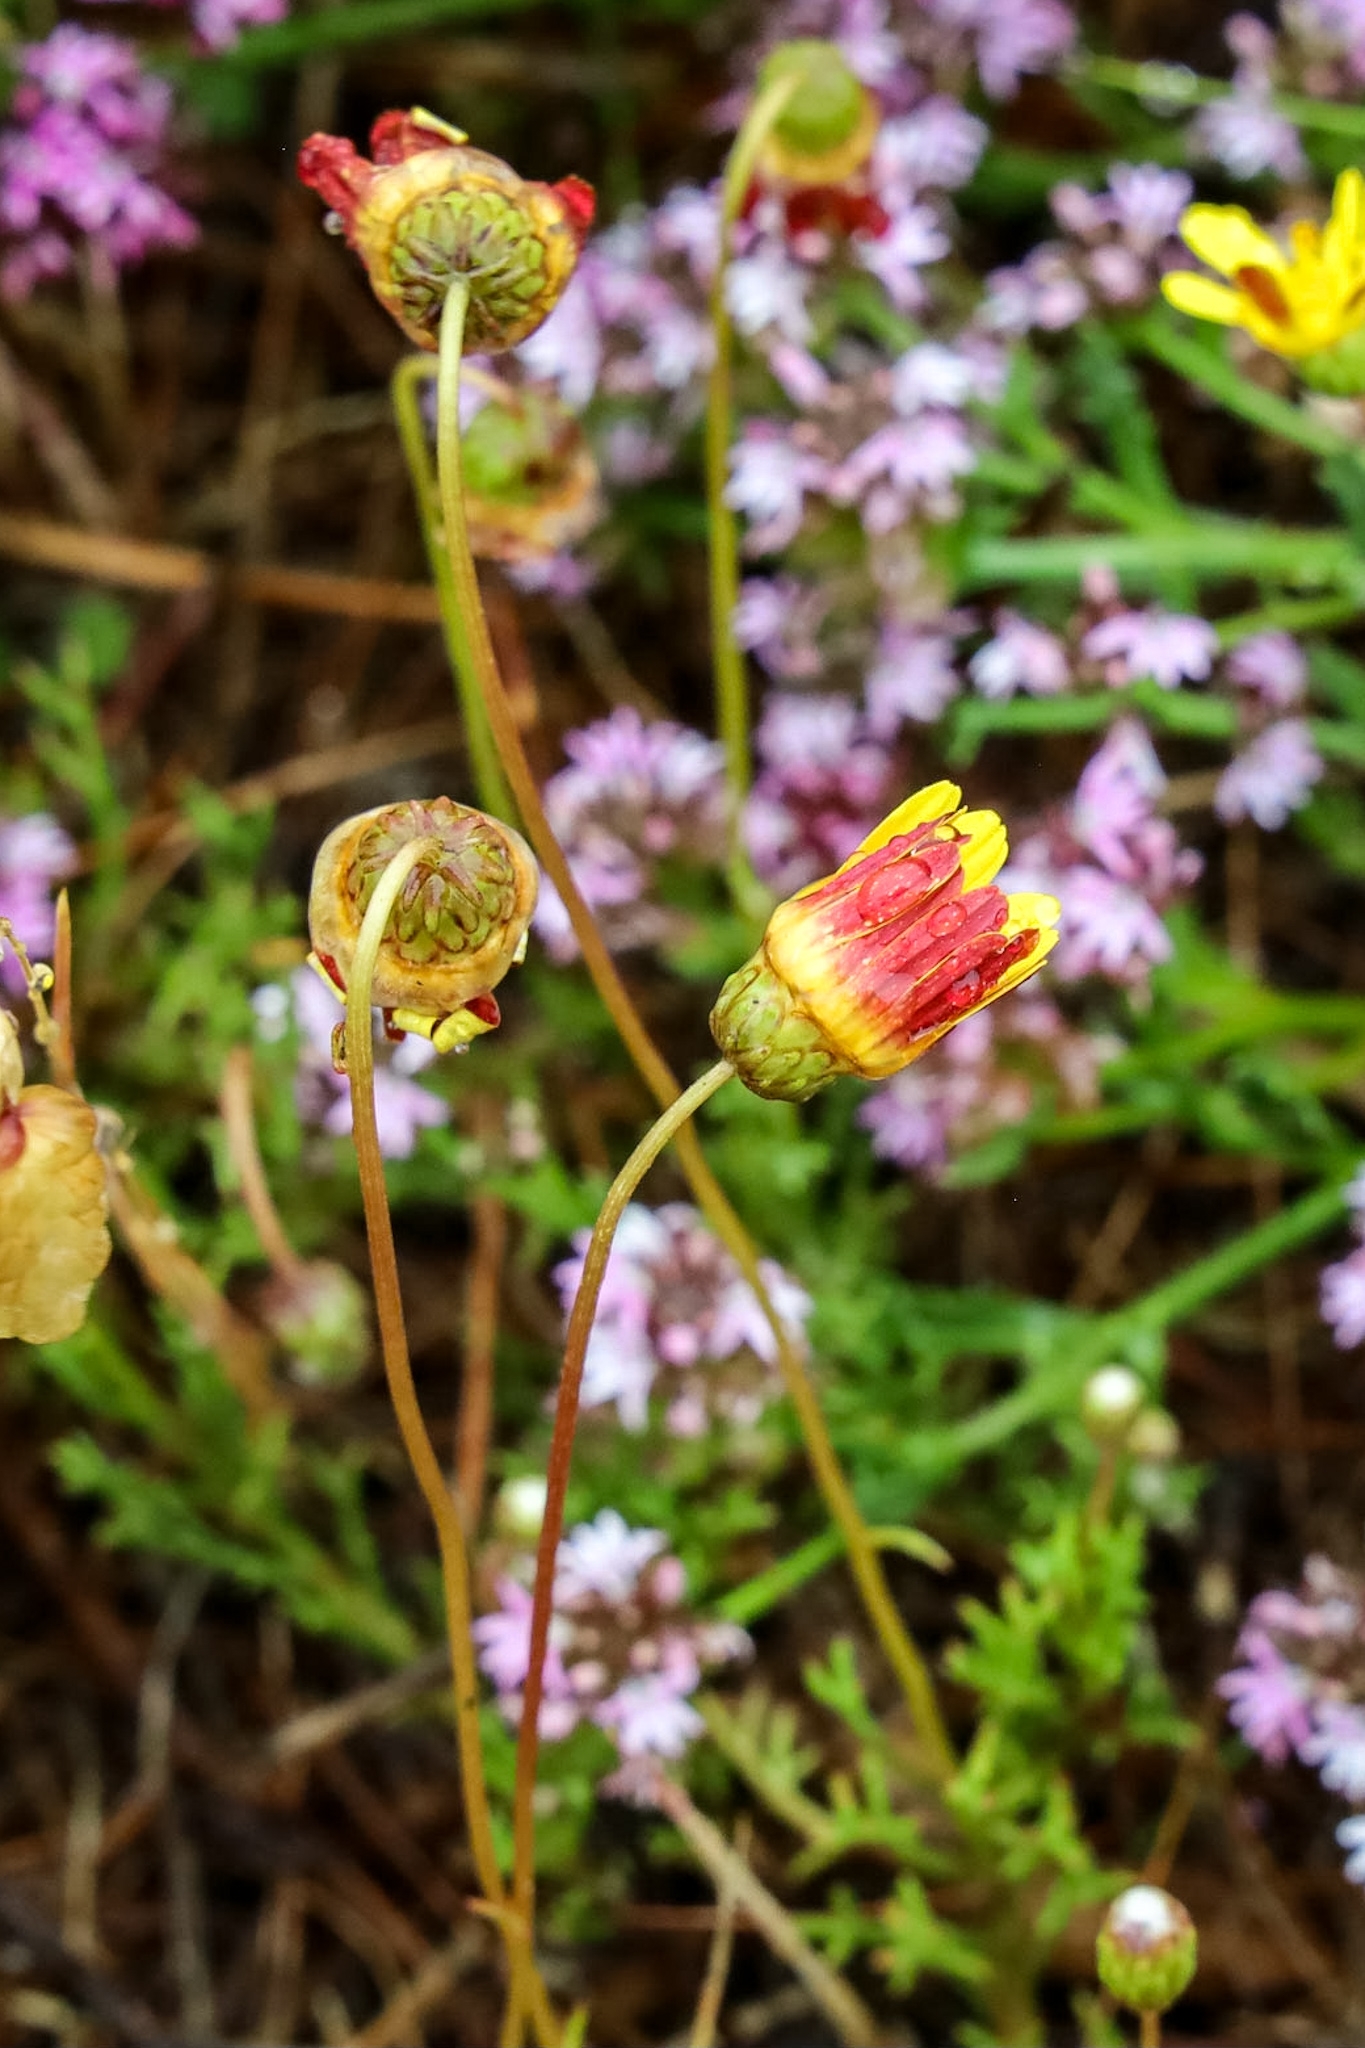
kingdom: Plantae
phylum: Tracheophyta
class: Magnoliopsida
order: Asterales
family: Asteraceae
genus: Ursinia
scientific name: Ursinia paleacea
